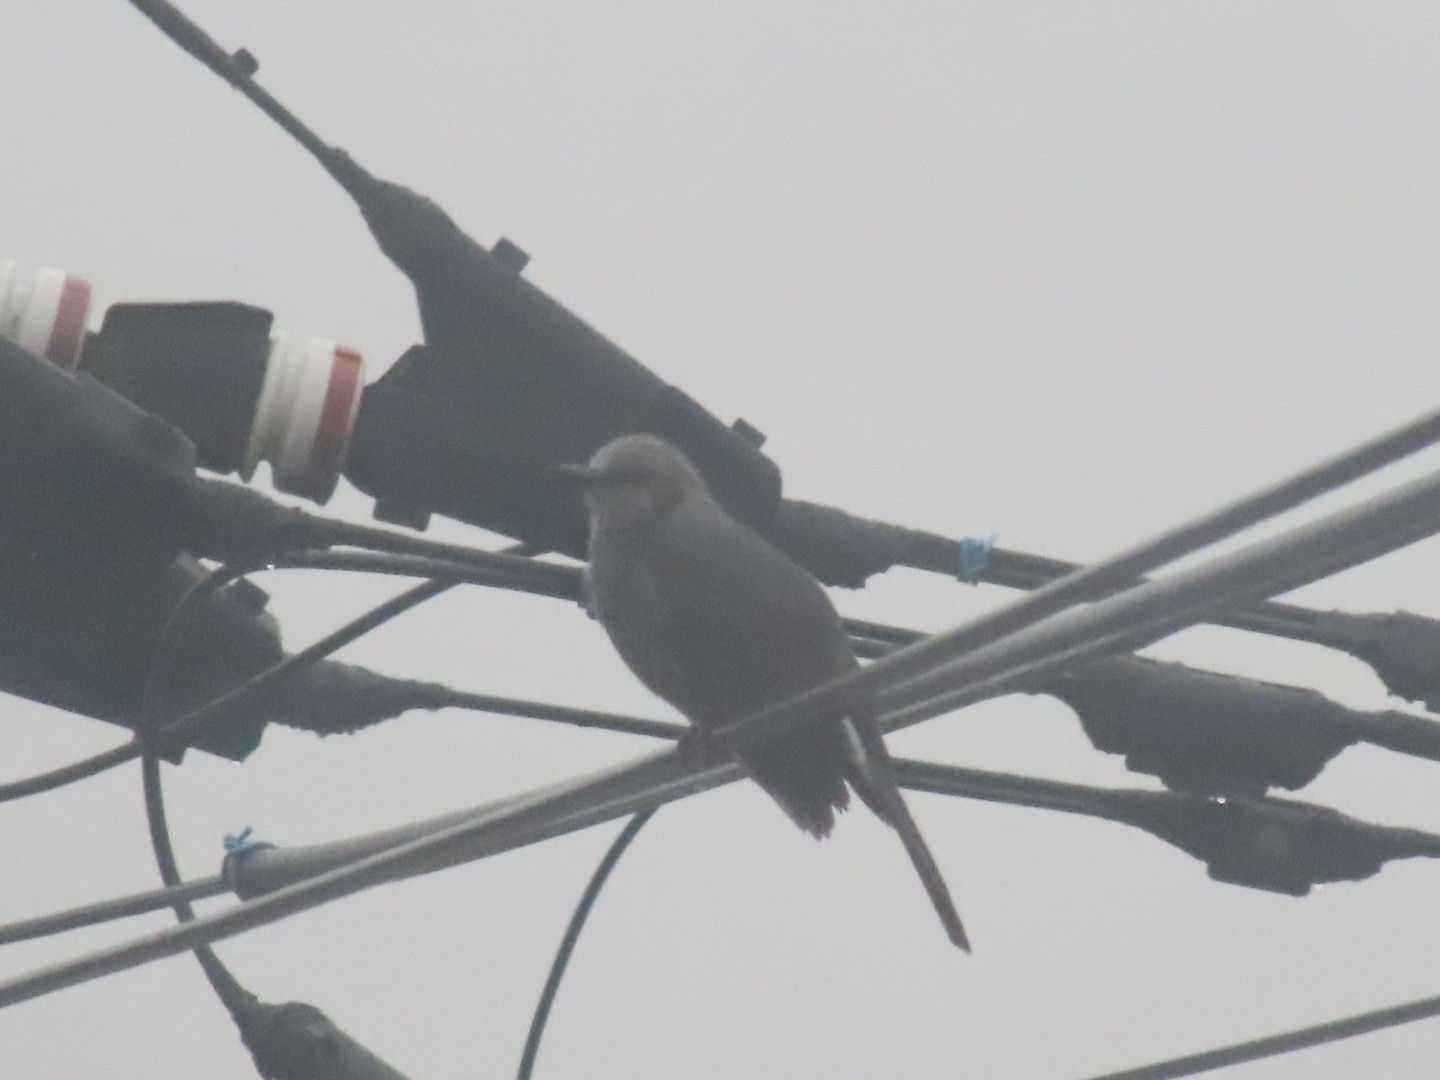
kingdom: Animalia
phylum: Chordata
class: Aves
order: Passeriformes
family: Pycnonotidae
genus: Hypsipetes
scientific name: Hypsipetes amaurotis
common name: Brown-eared bulbul
